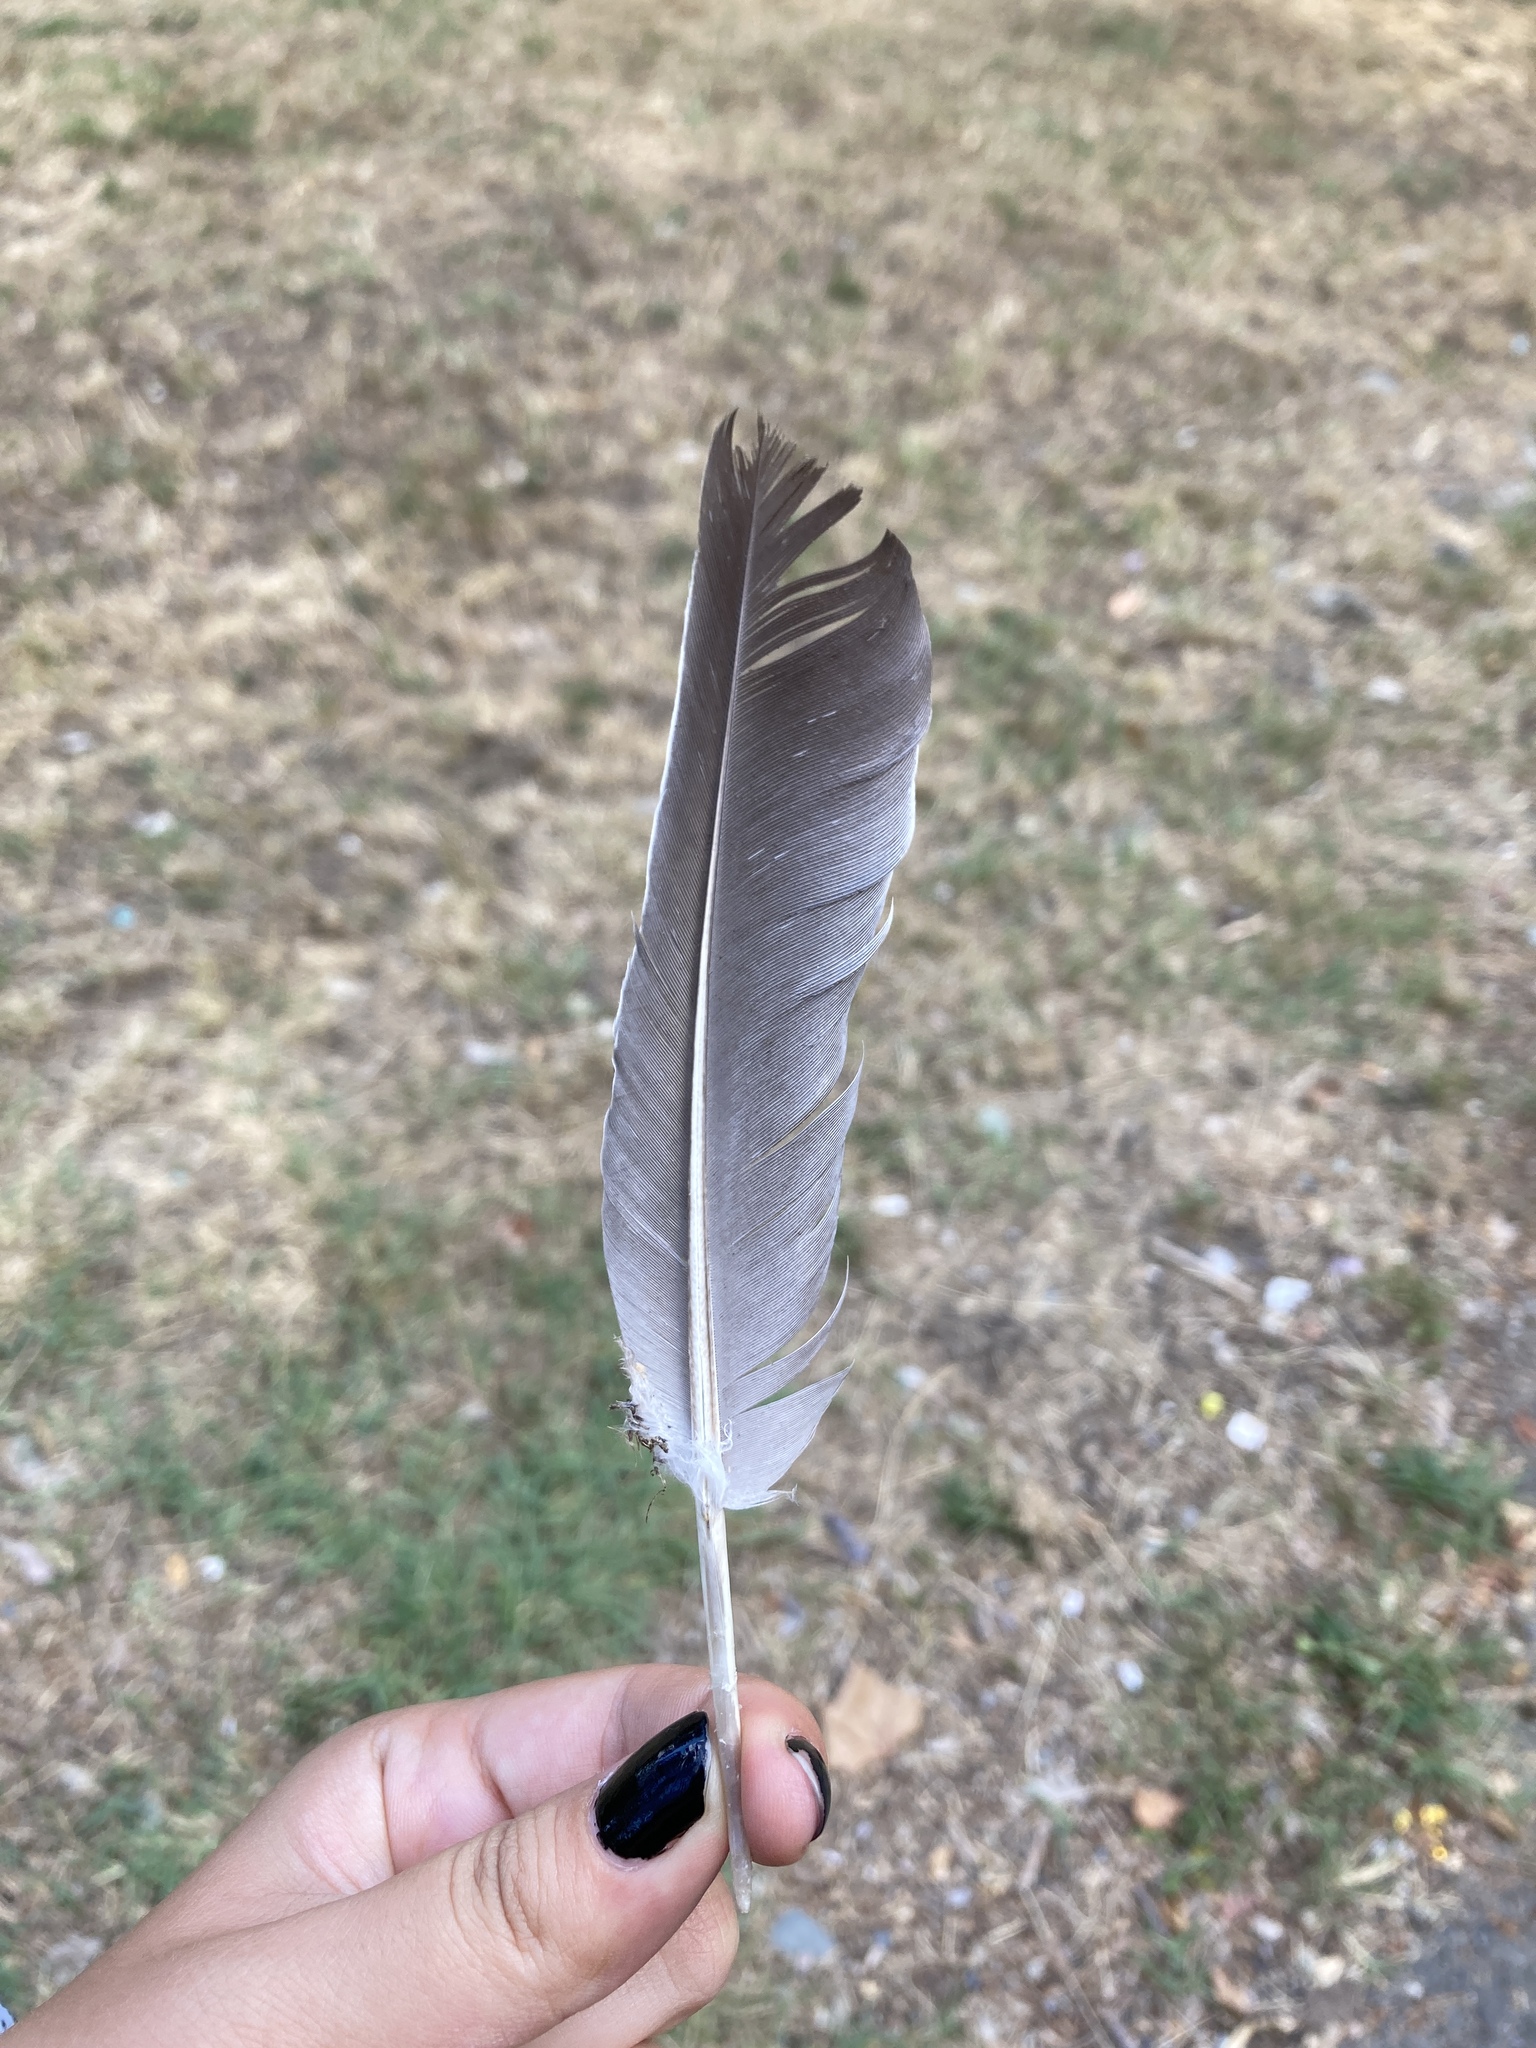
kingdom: Animalia
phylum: Chordata
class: Aves
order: Columbiformes
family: Columbidae
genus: Columba
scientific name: Columba palumbus
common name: Common wood pigeon
